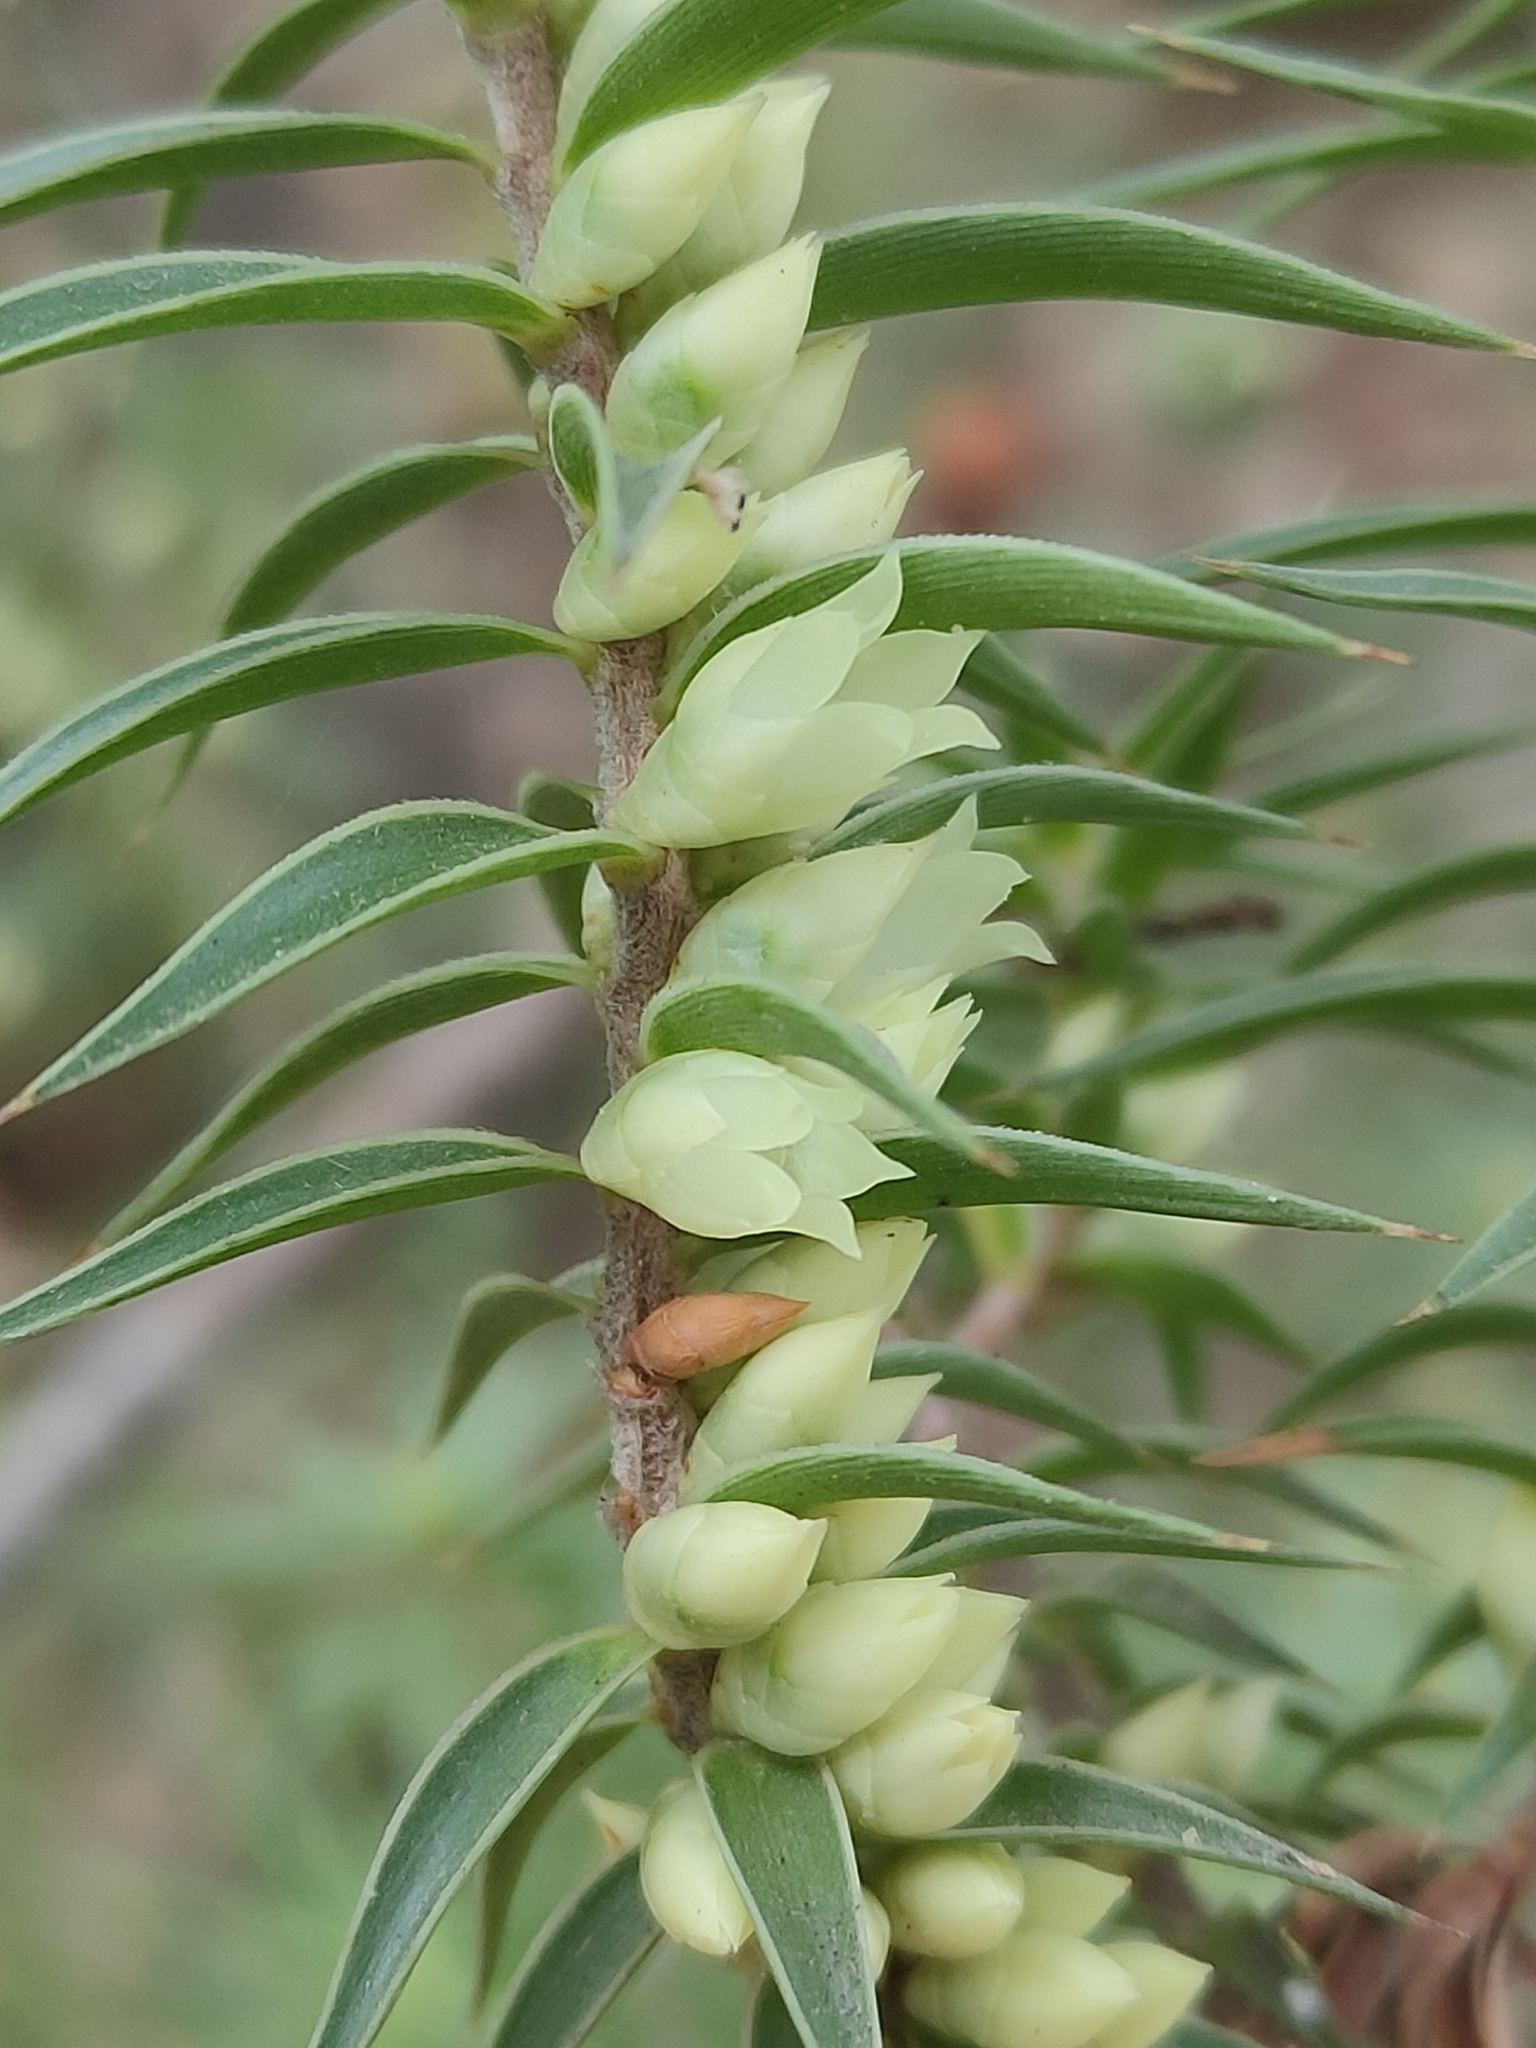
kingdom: Plantae
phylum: Tracheophyta
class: Magnoliopsida
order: Ericales
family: Ericaceae
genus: Melichrus
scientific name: Melichrus urceolatus
